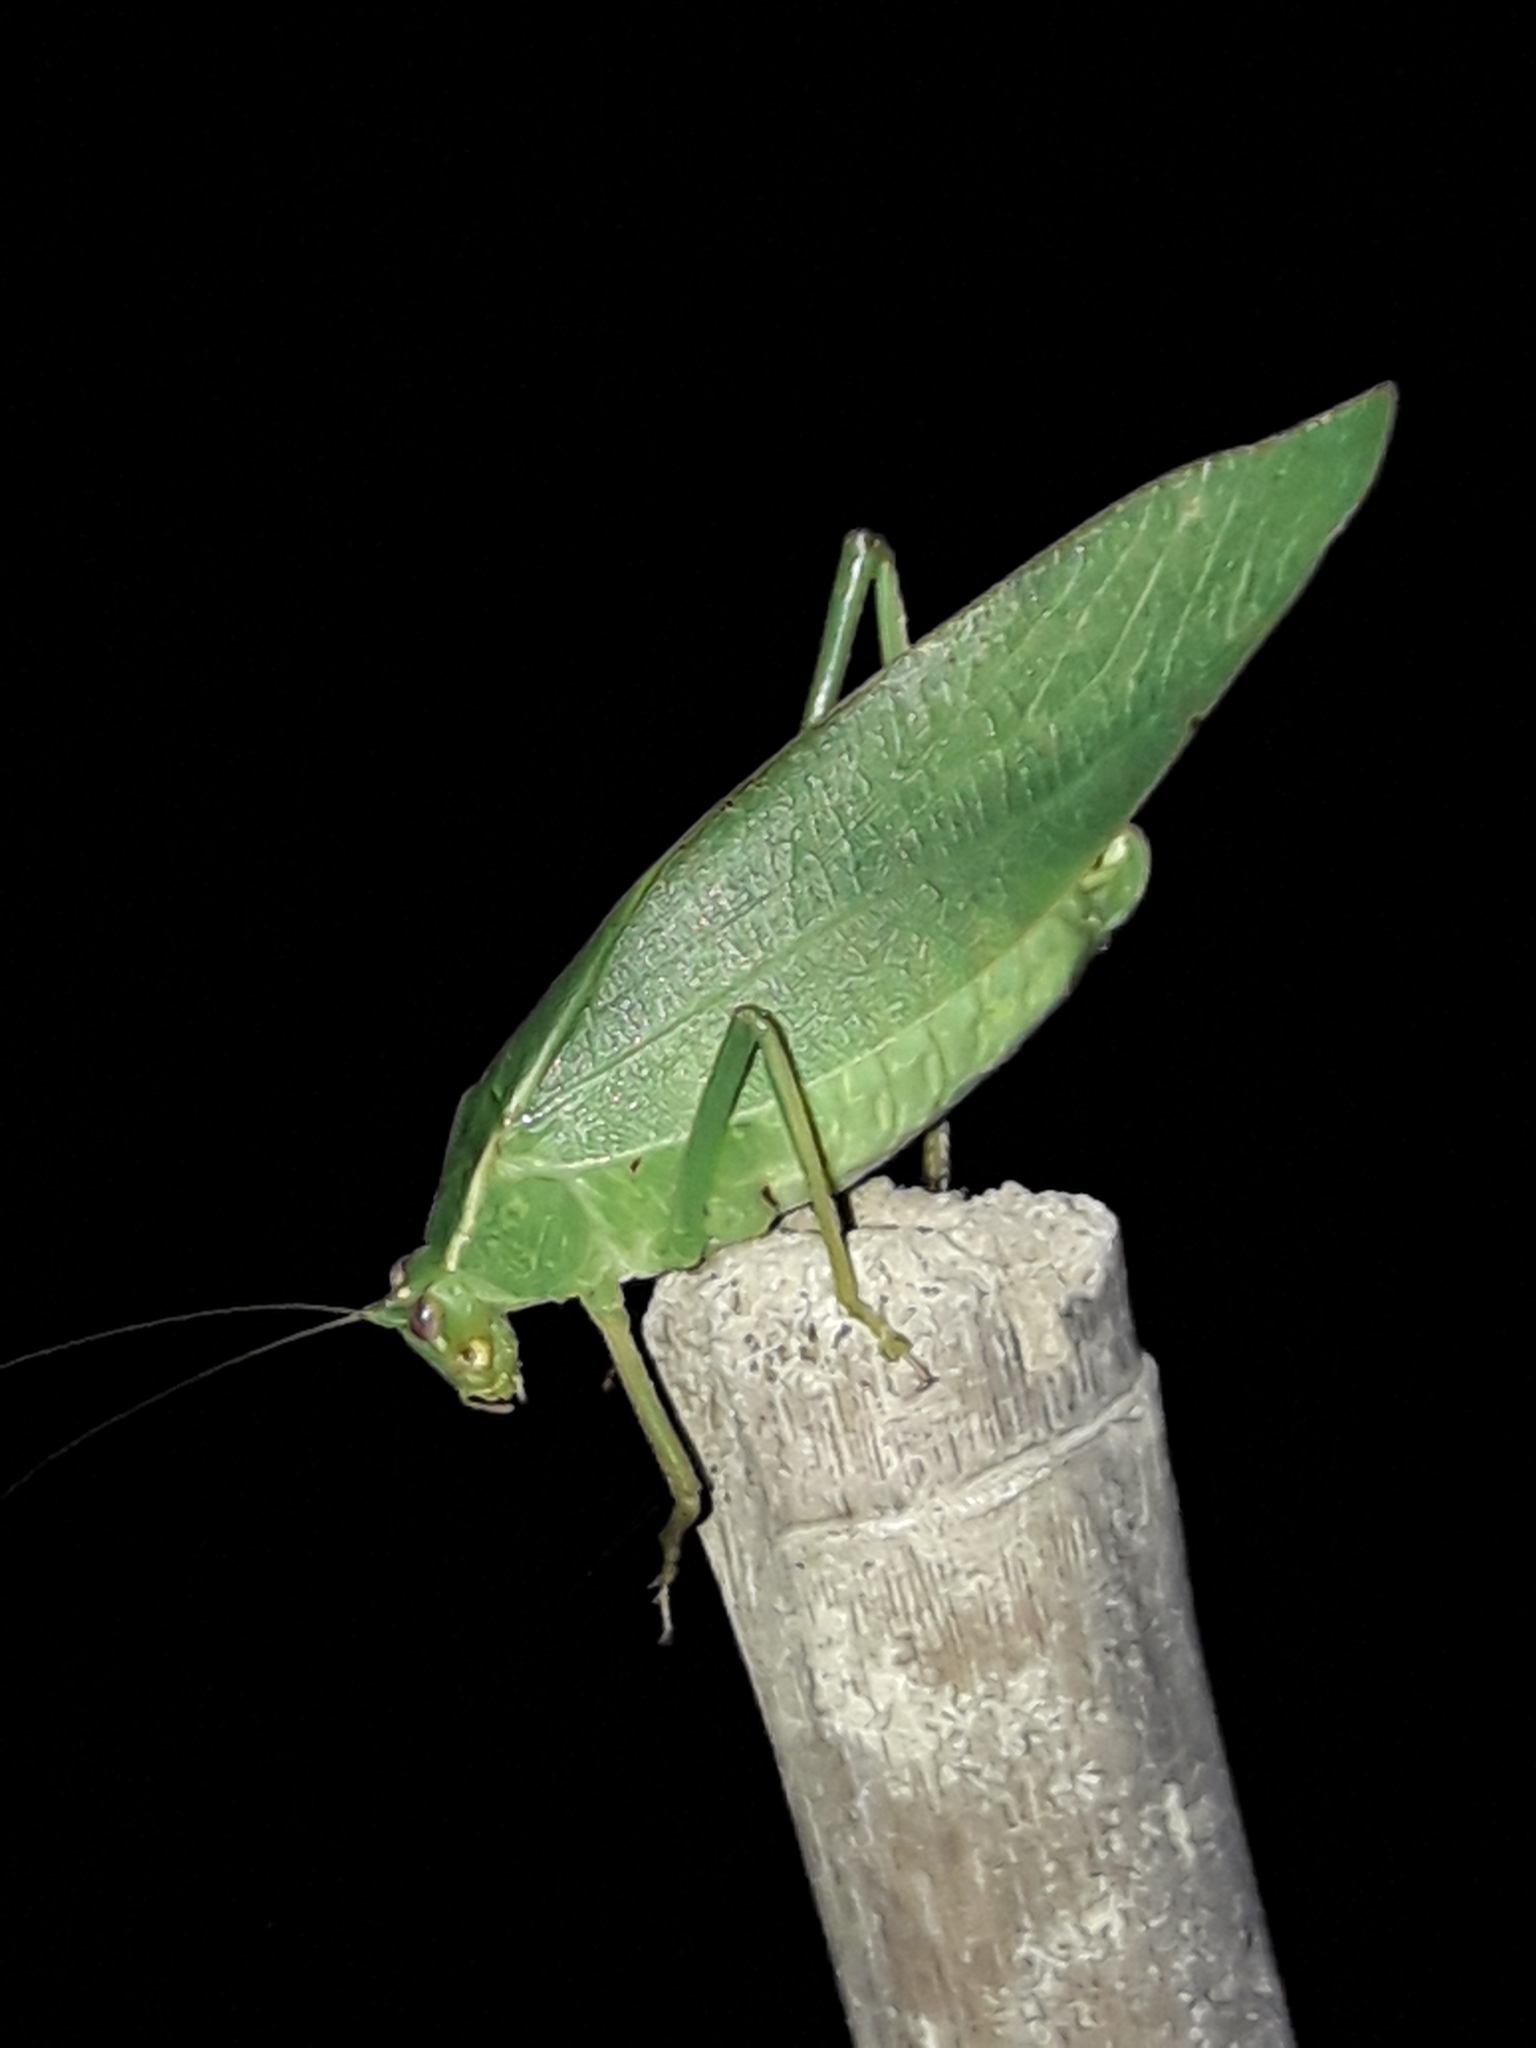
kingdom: Animalia
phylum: Arthropoda
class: Insecta
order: Orthoptera
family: Tettigoniidae
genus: Caedicia
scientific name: Caedicia simplex
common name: Common garden katydid
